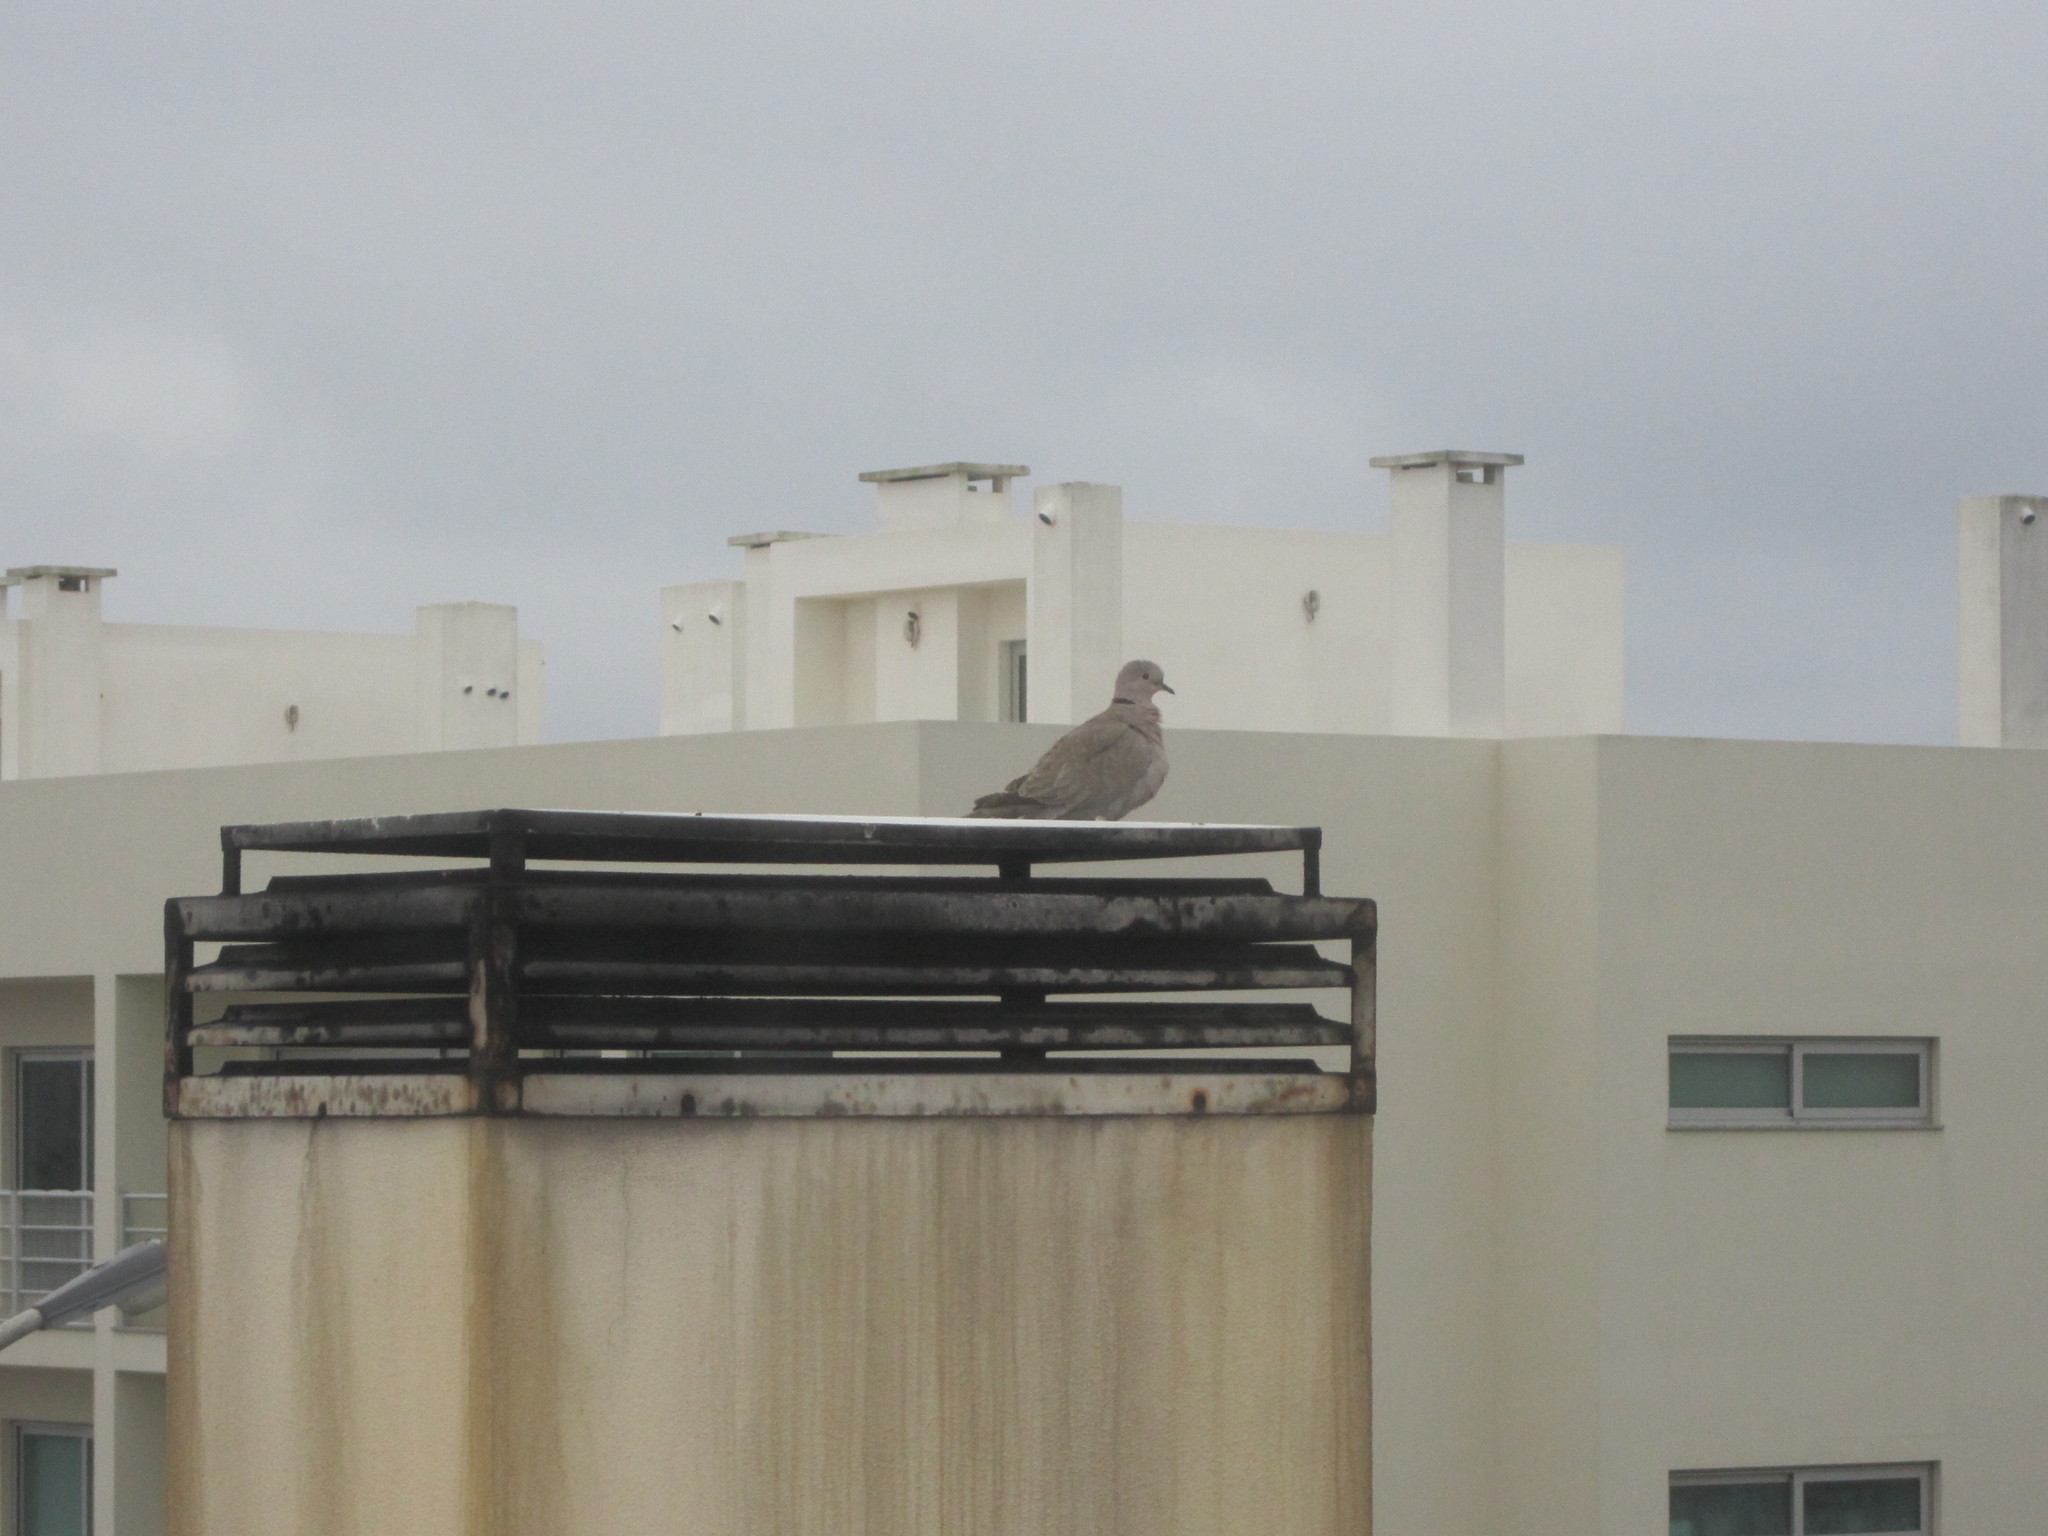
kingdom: Animalia
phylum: Chordata
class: Aves
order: Columbiformes
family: Columbidae
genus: Streptopelia
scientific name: Streptopelia decaocto
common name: Eurasian collared dove
